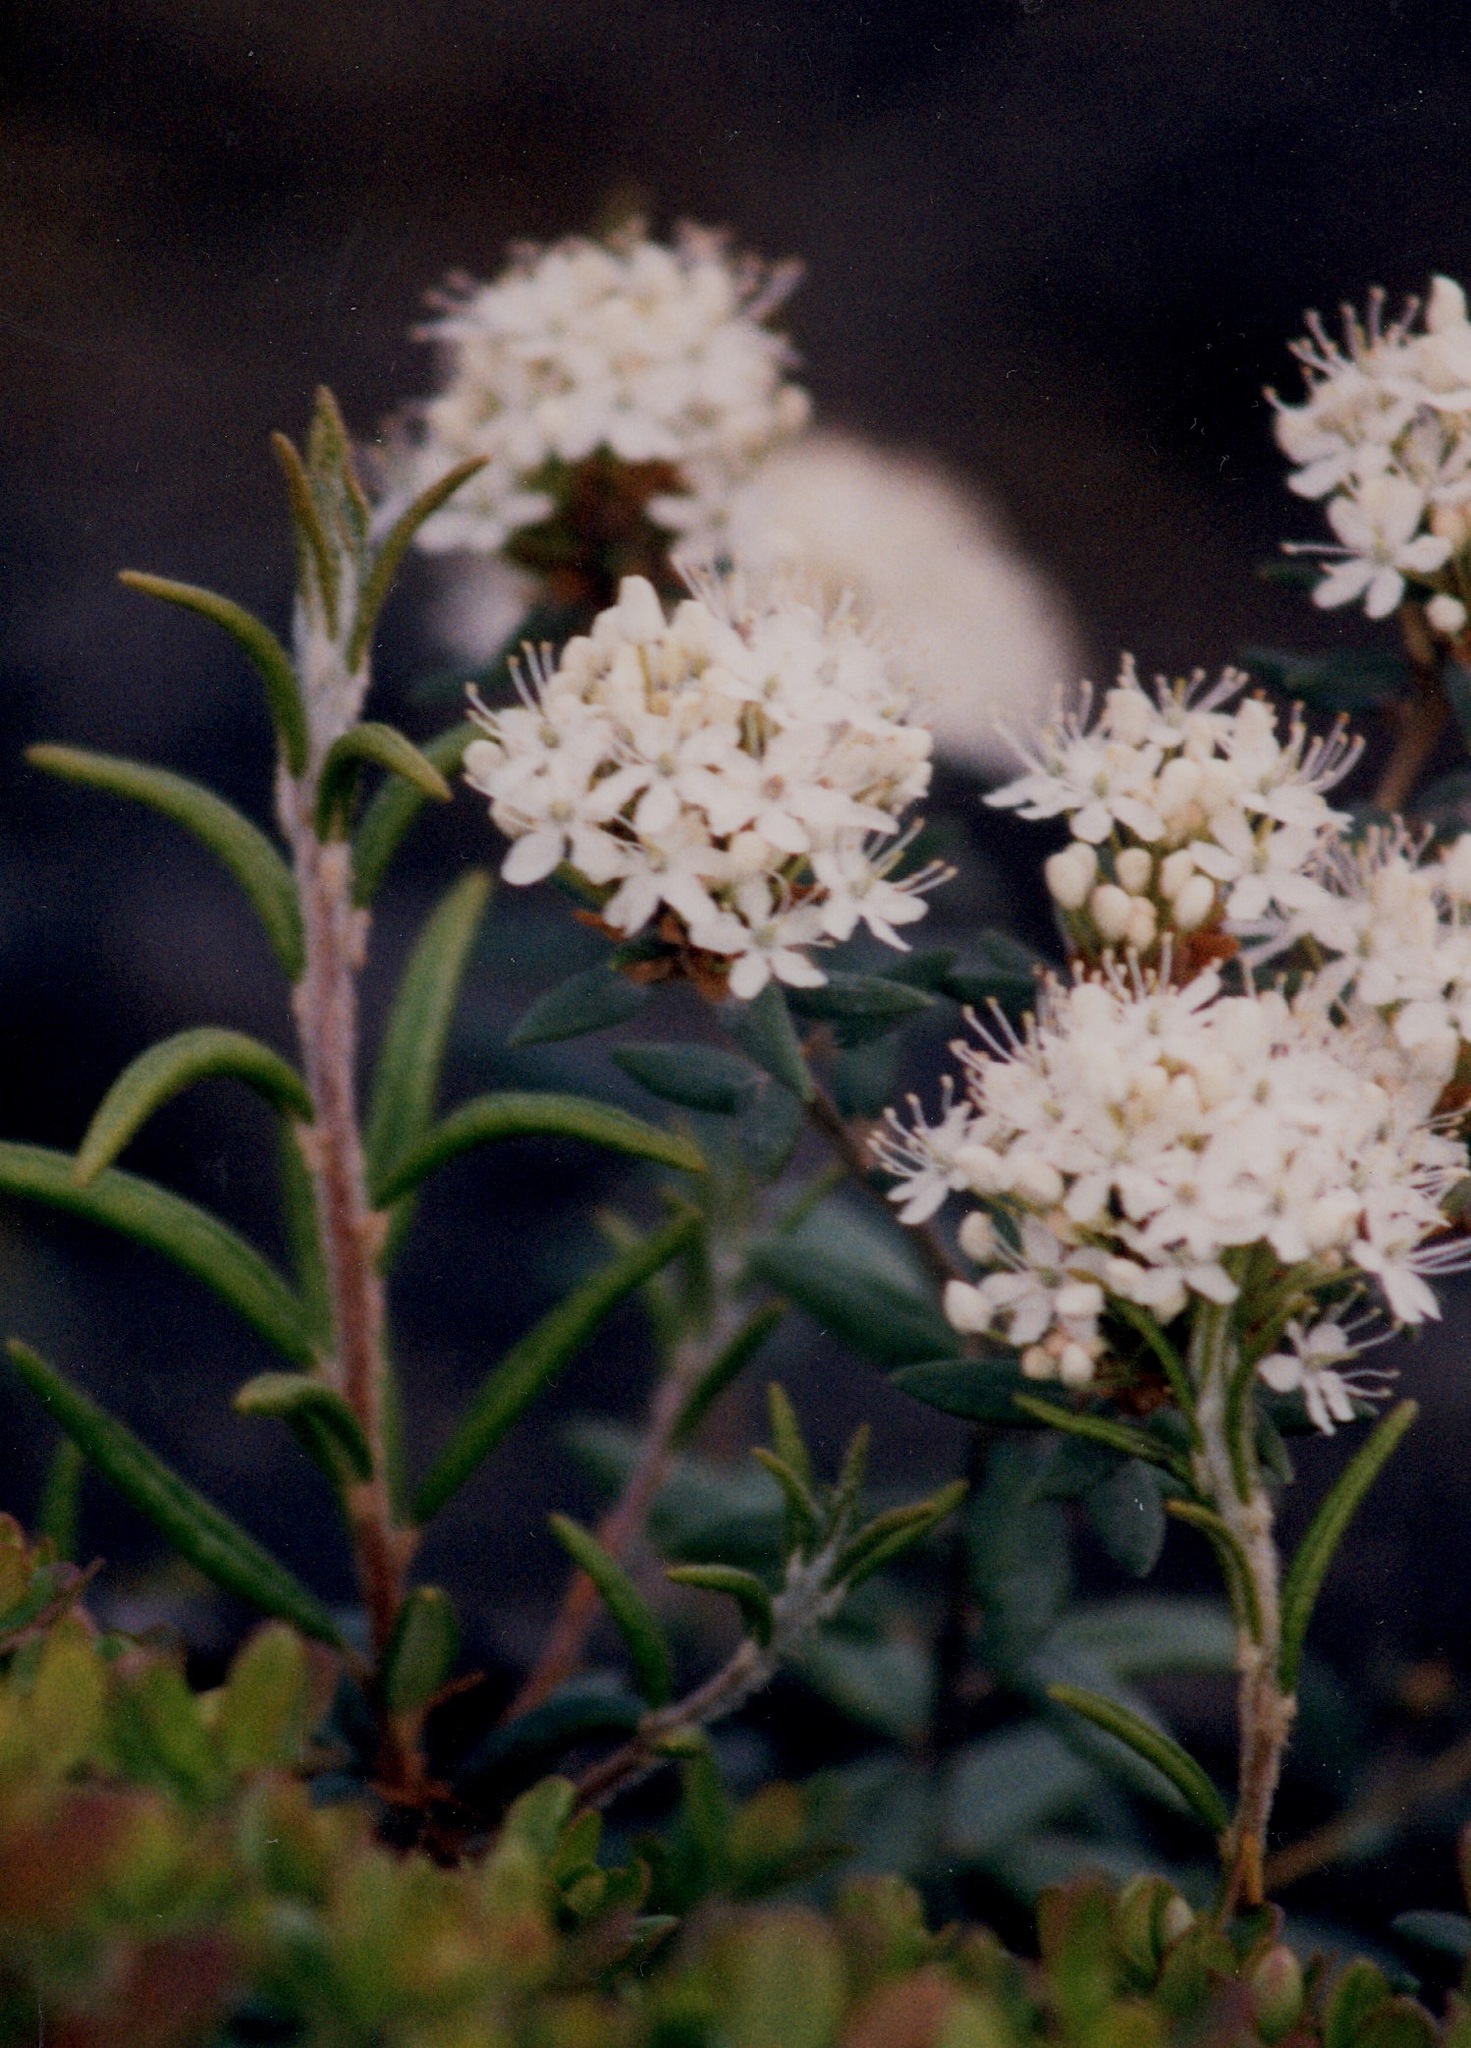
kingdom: Plantae
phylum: Tracheophyta
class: Magnoliopsida
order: Ericales
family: Ericaceae
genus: Rhododendron
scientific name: Rhododendron tomentosum
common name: Marsh labrador tea
